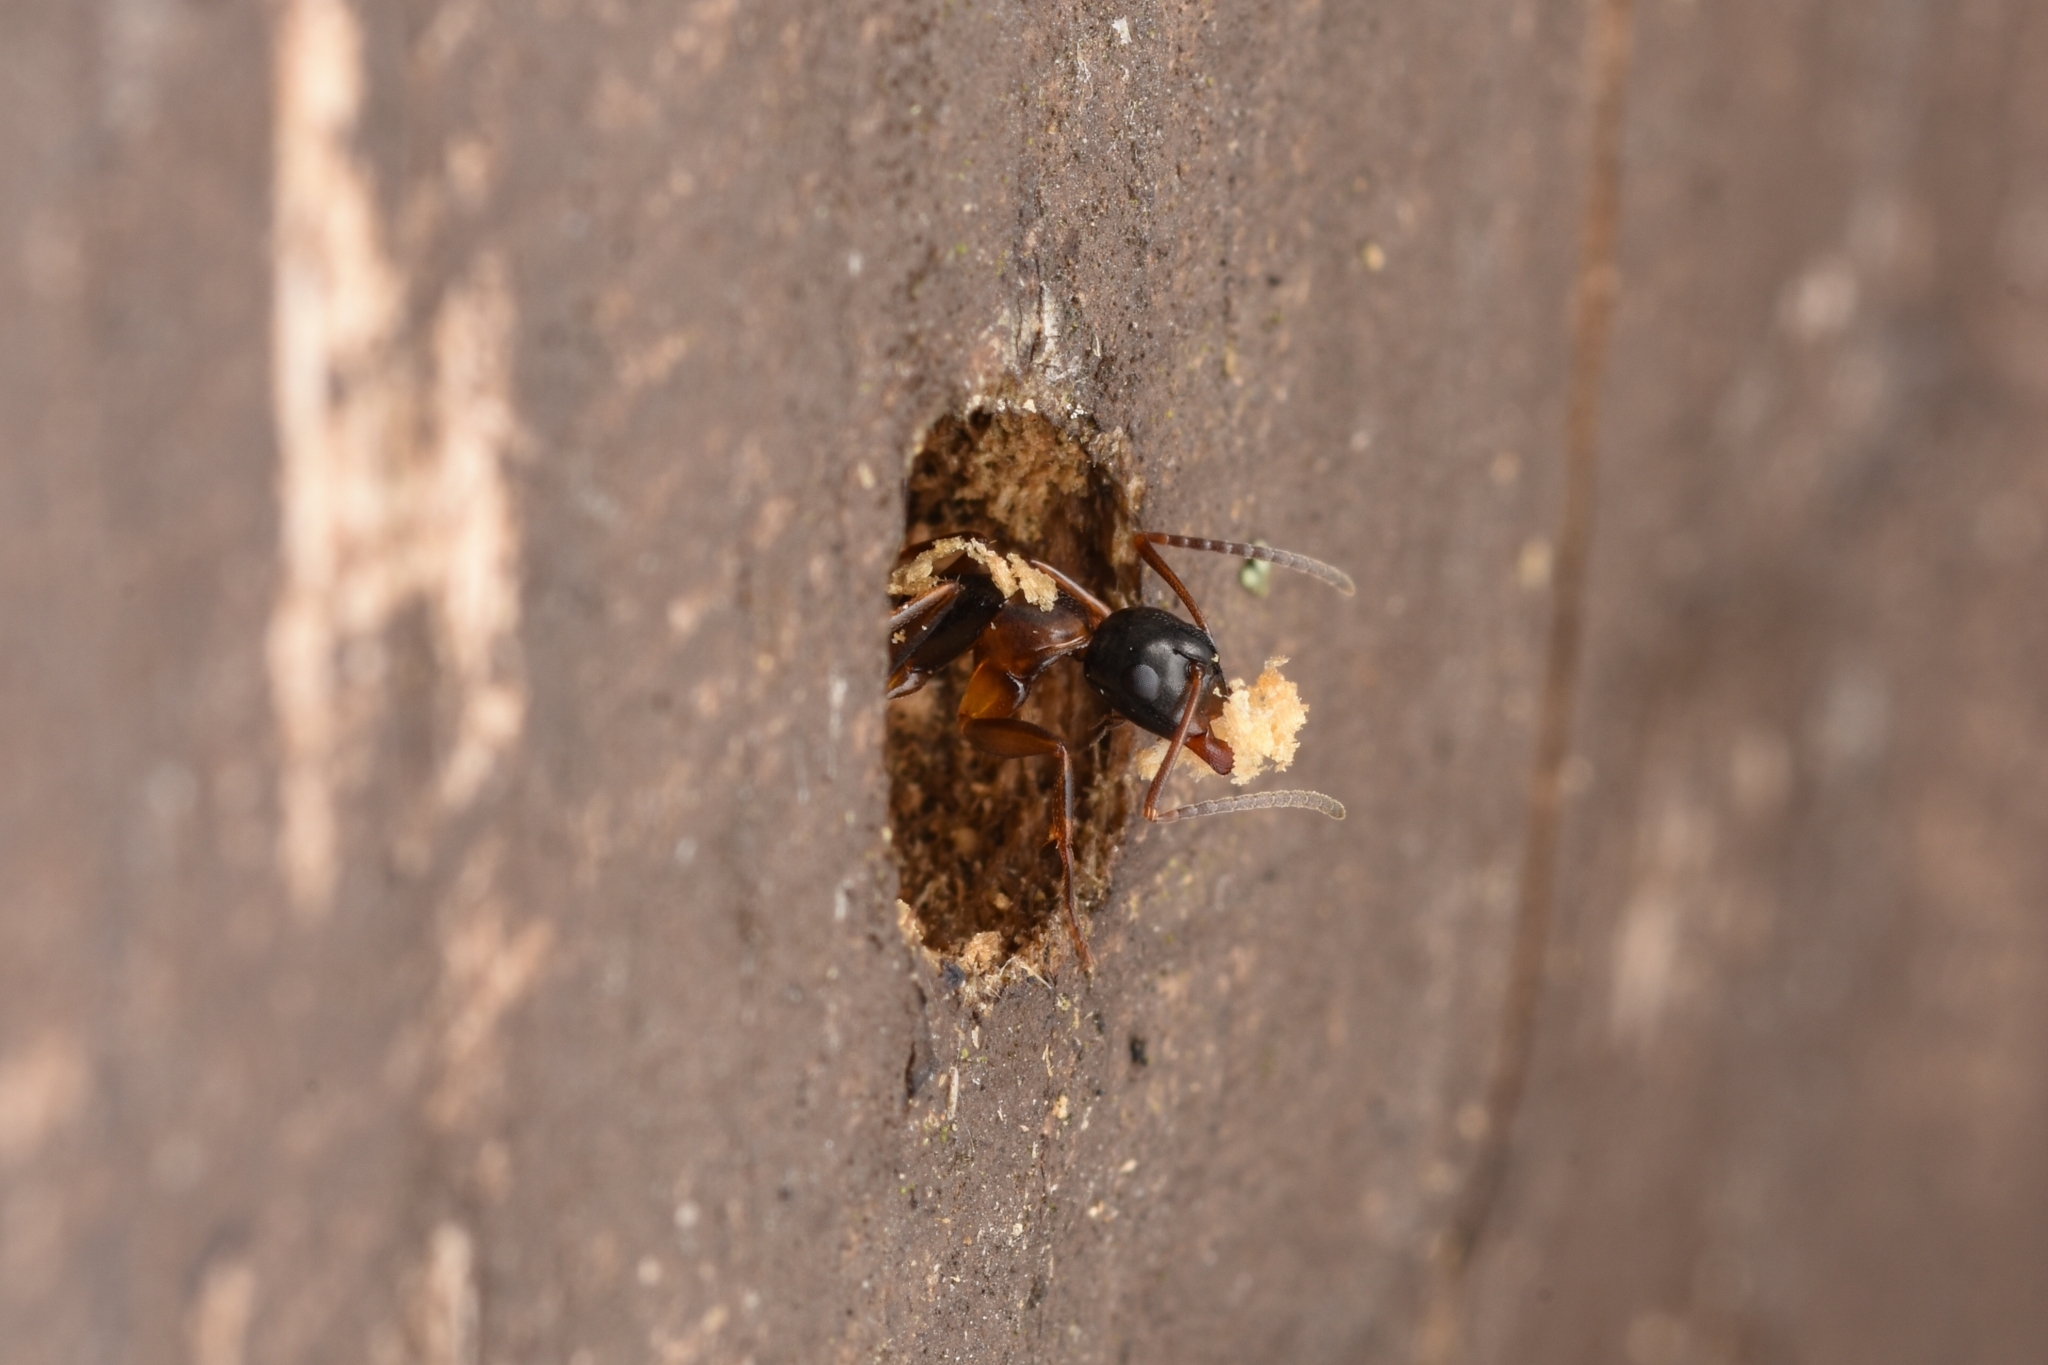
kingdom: Animalia
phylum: Arthropoda
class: Insecta
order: Hymenoptera
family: Formicidae
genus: Camponotus
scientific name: Camponotus quadrinotatus
